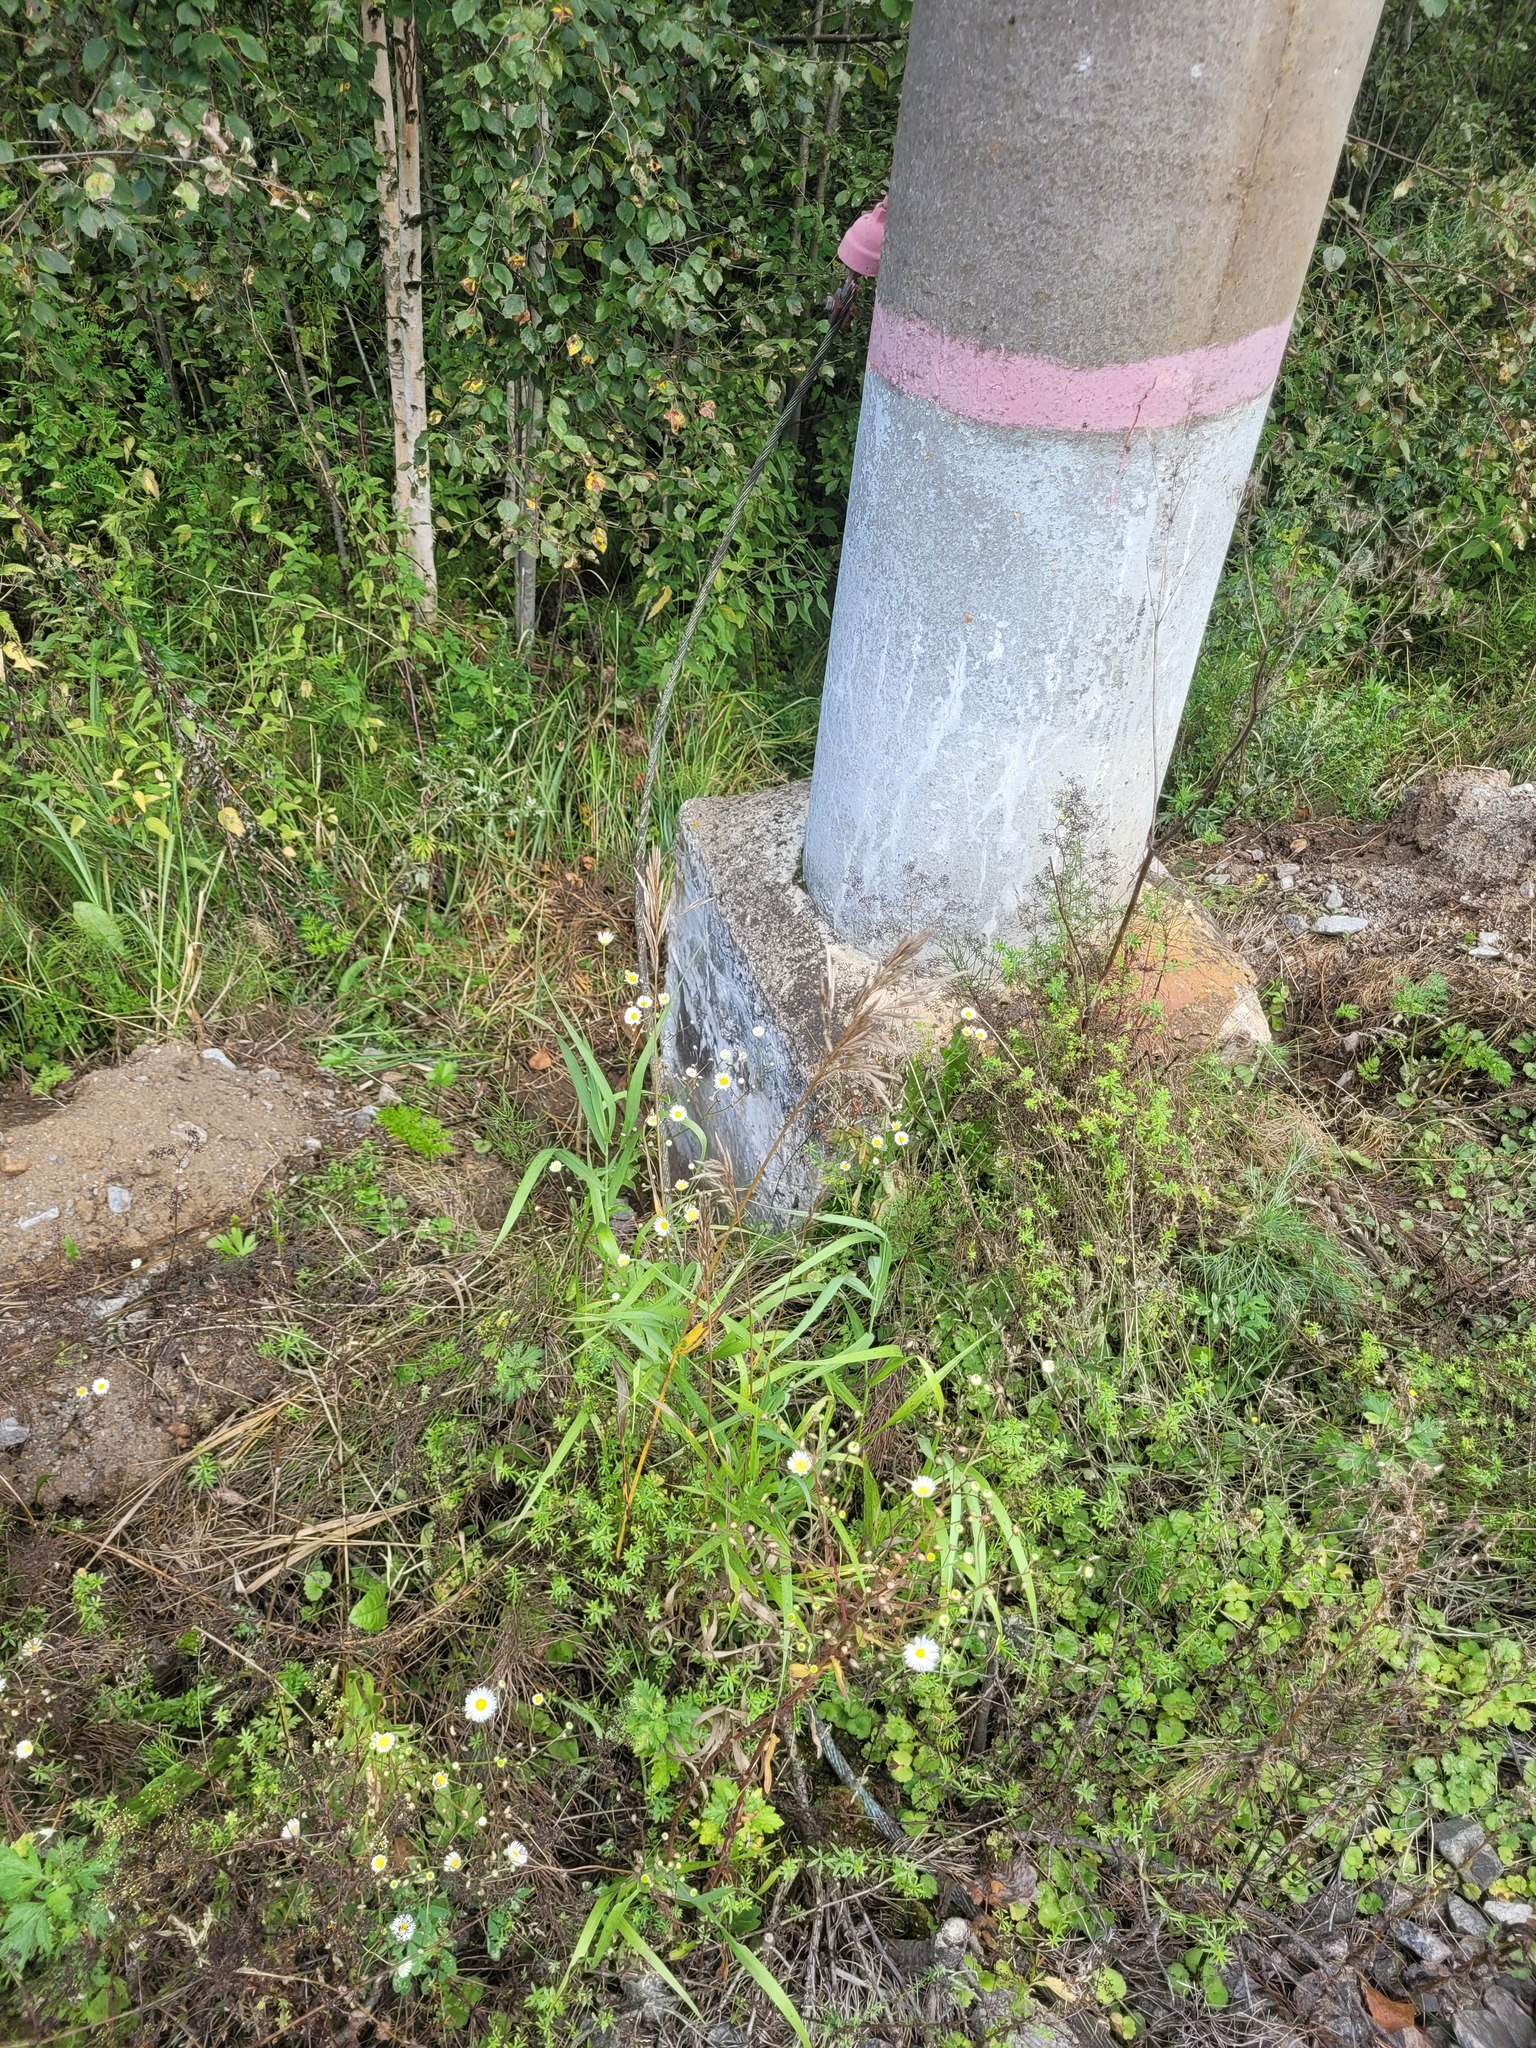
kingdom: Plantae
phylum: Tracheophyta
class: Liliopsida
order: Poales
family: Poaceae
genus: Bromus
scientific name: Bromus inermis
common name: Smooth brome
